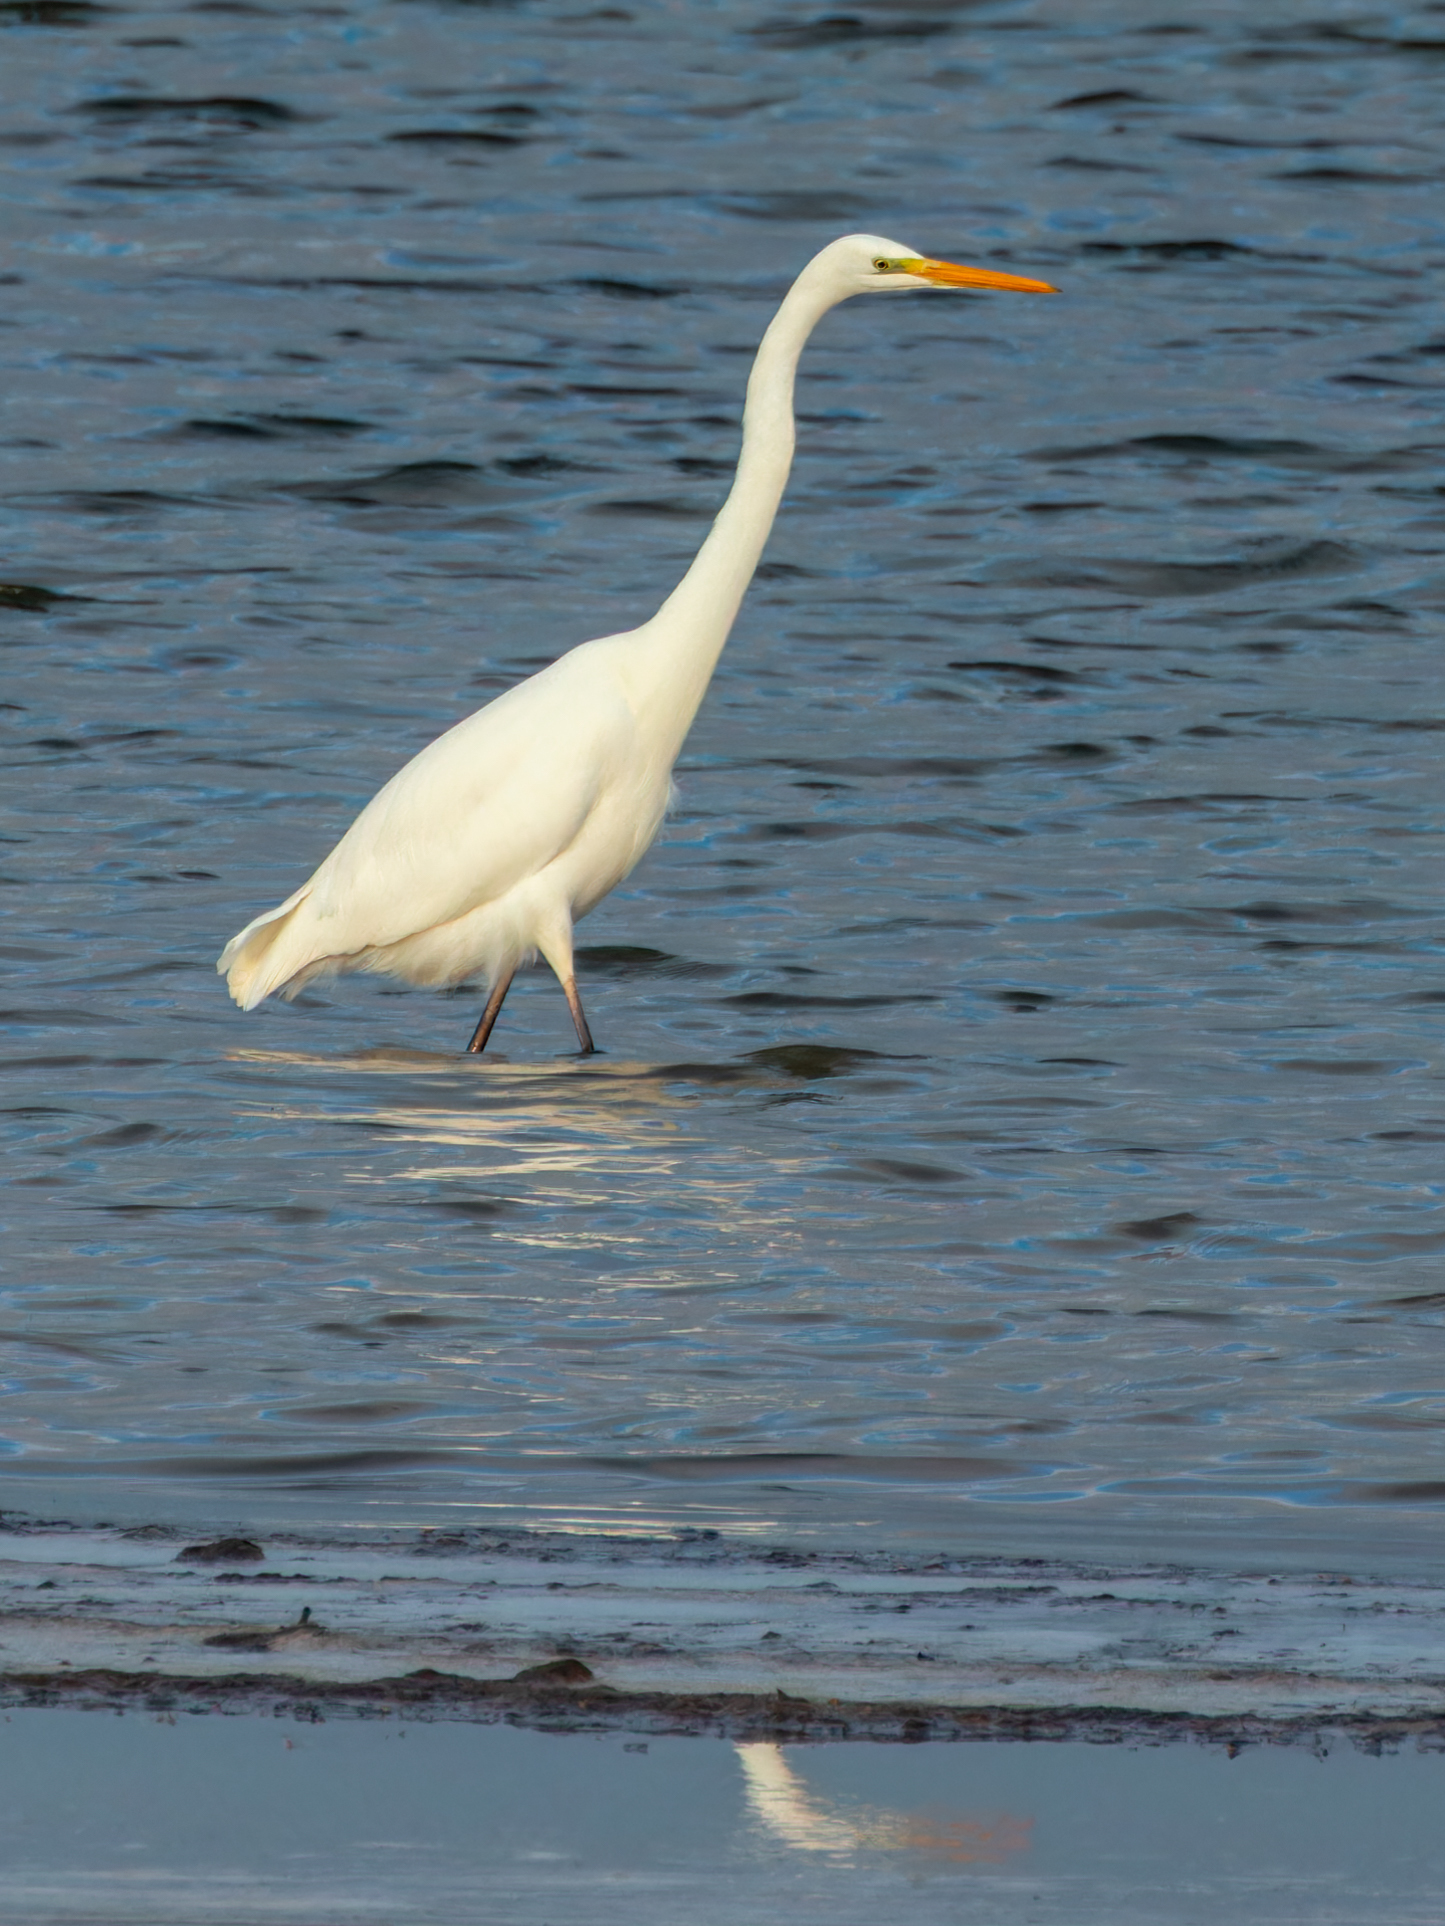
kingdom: Animalia
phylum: Chordata
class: Aves
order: Pelecaniformes
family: Ardeidae
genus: Ardea
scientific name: Ardea alba
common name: Great egret
